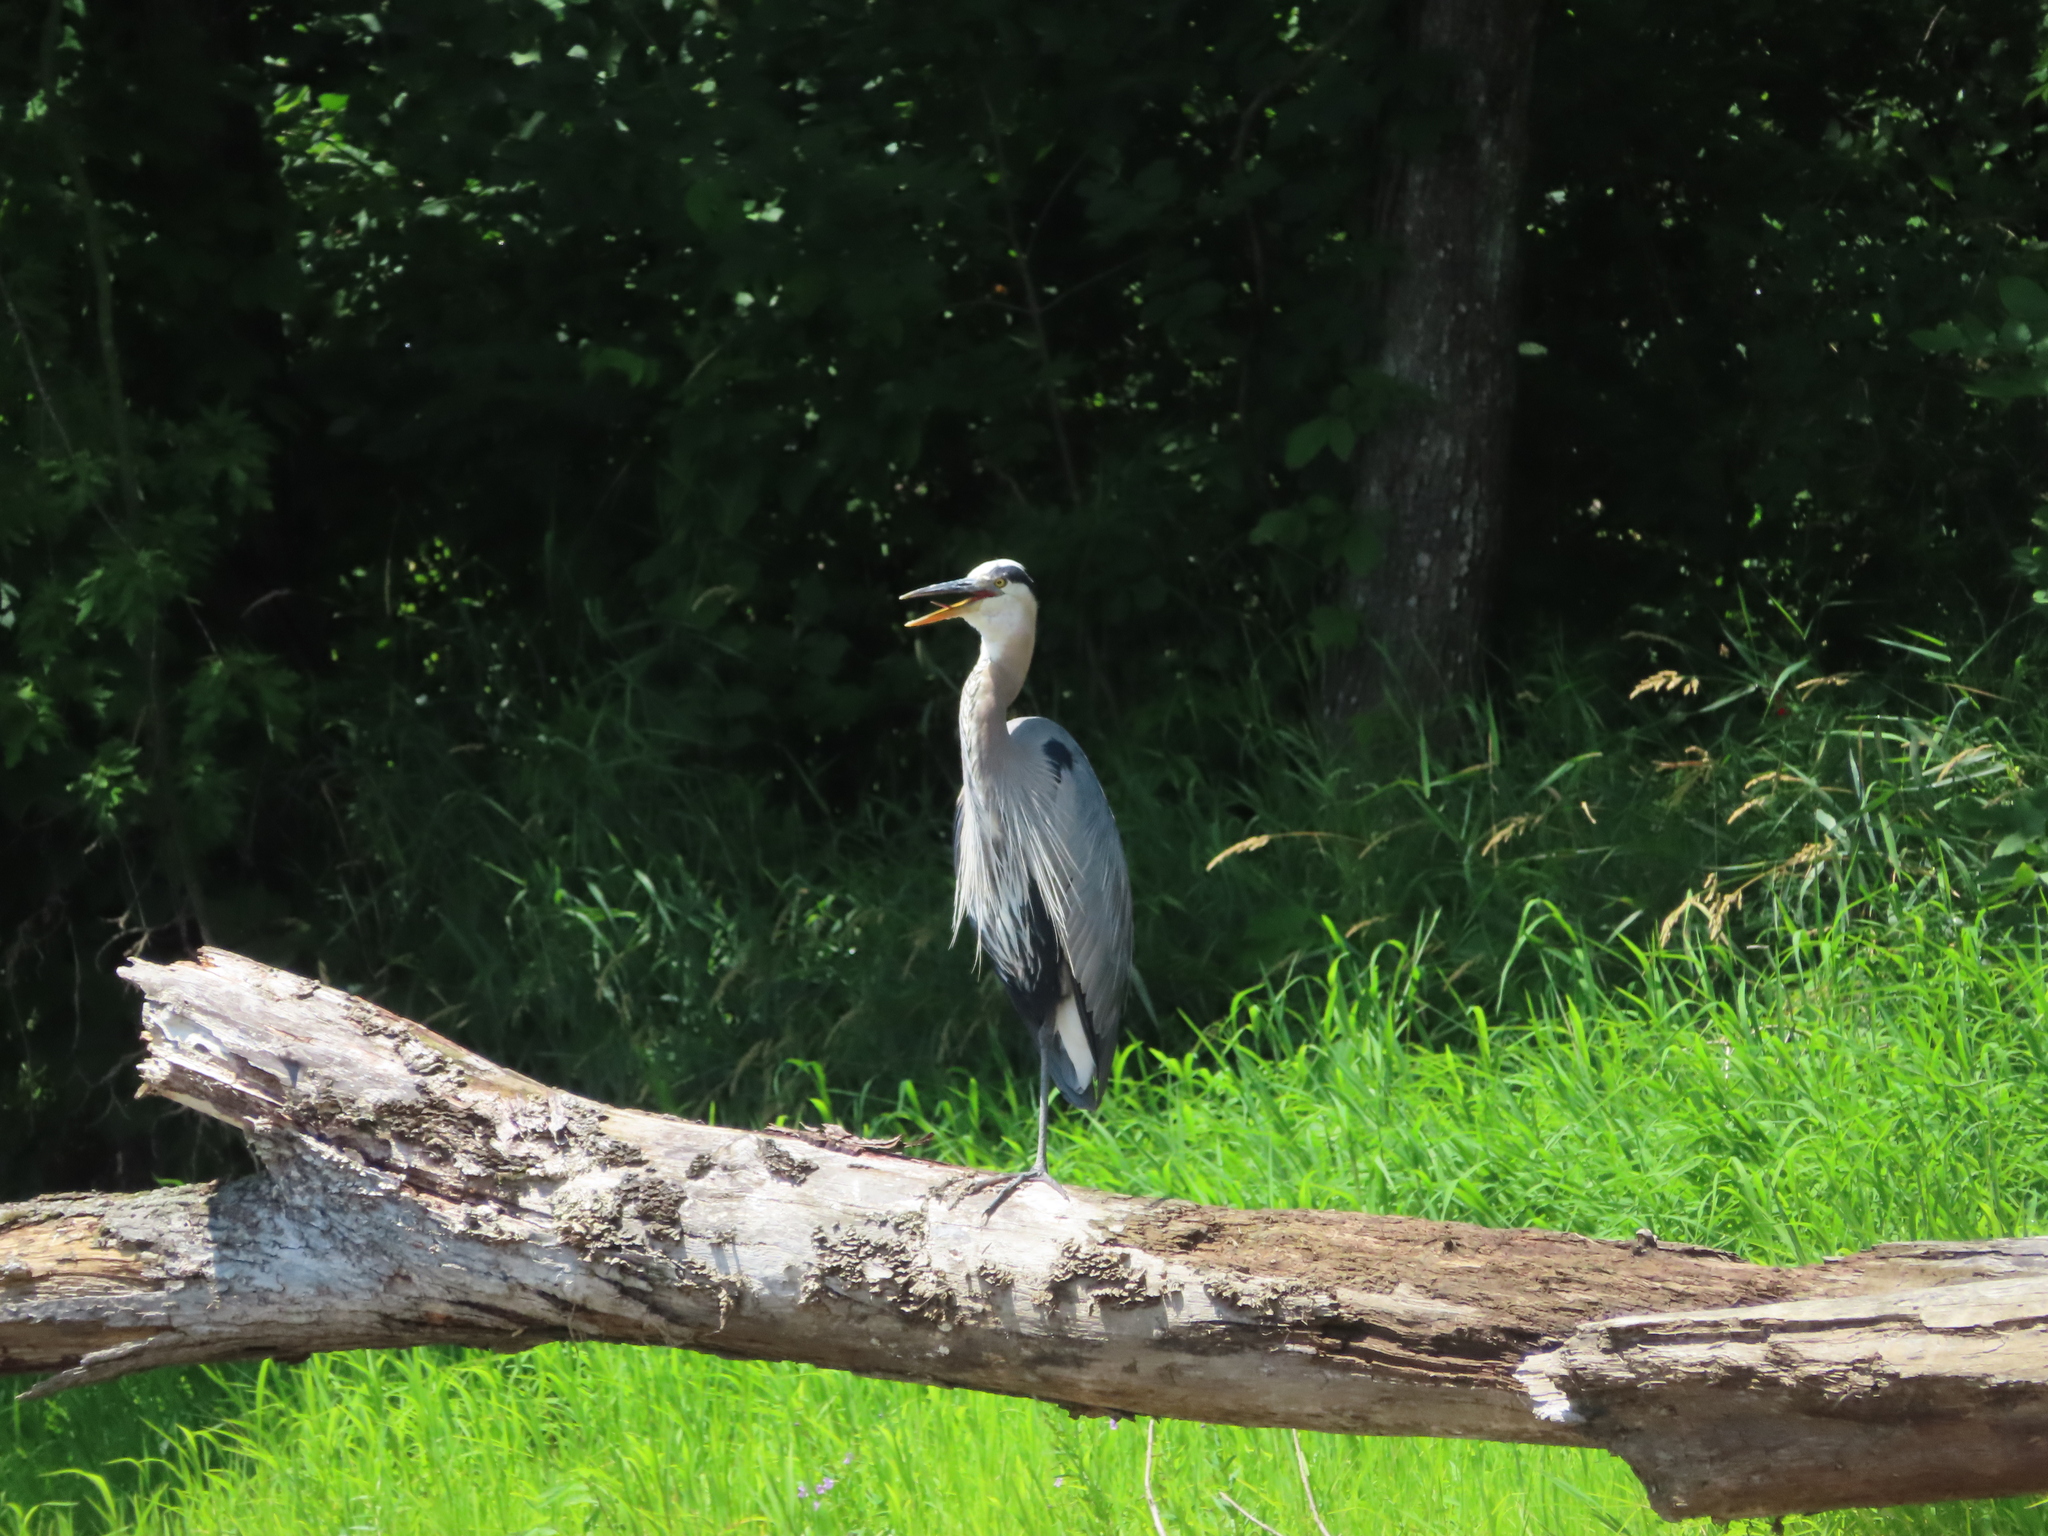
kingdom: Animalia
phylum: Chordata
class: Aves
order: Pelecaniformes
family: Ardeidae
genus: Ardea
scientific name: Ardea herodias
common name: Great blue heron
